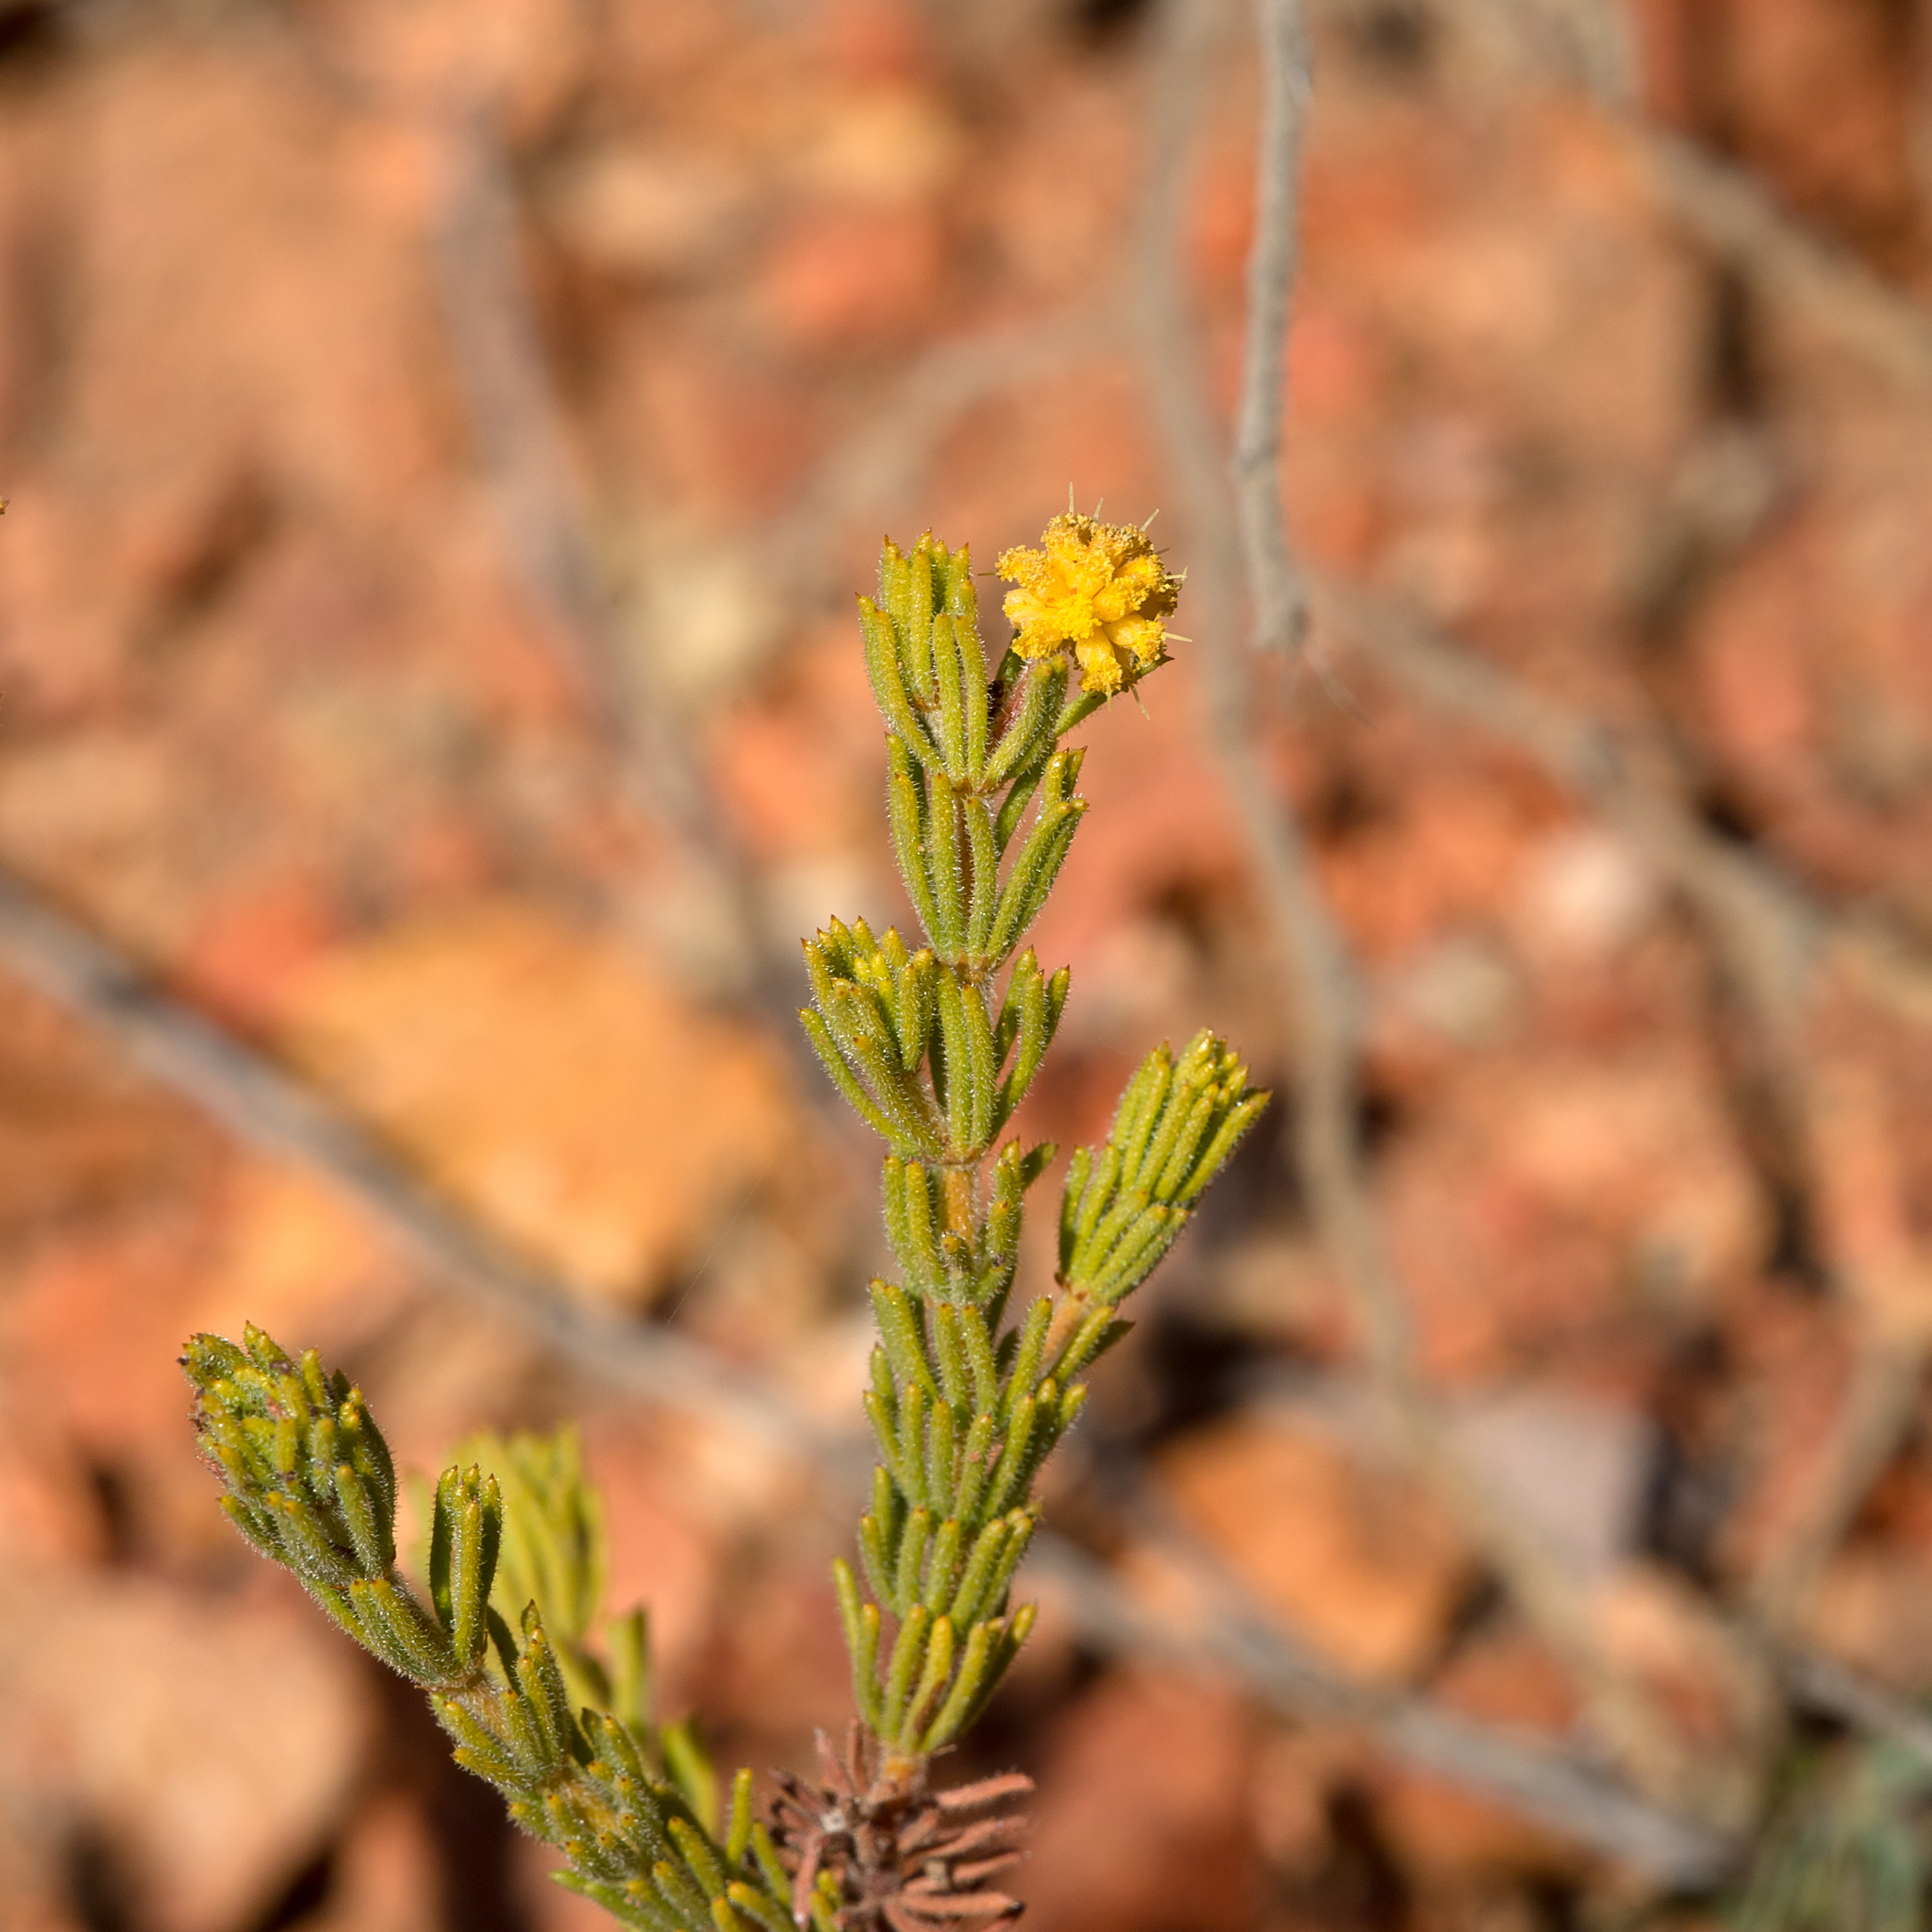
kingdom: Plantae
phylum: Tracheophyta
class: Magnoliopsida
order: Fabales
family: Fabaceae
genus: Acacia
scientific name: Acacia chippendalei
